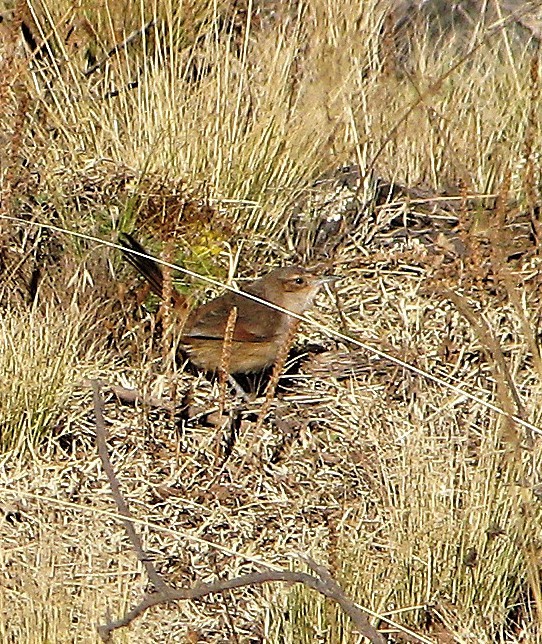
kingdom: Animalia
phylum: Chordata
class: Aves
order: Passeriformes
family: Furnariidae
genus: Asthenes
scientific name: Asthenes dorbignyi
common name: Rusty-vented canastero
